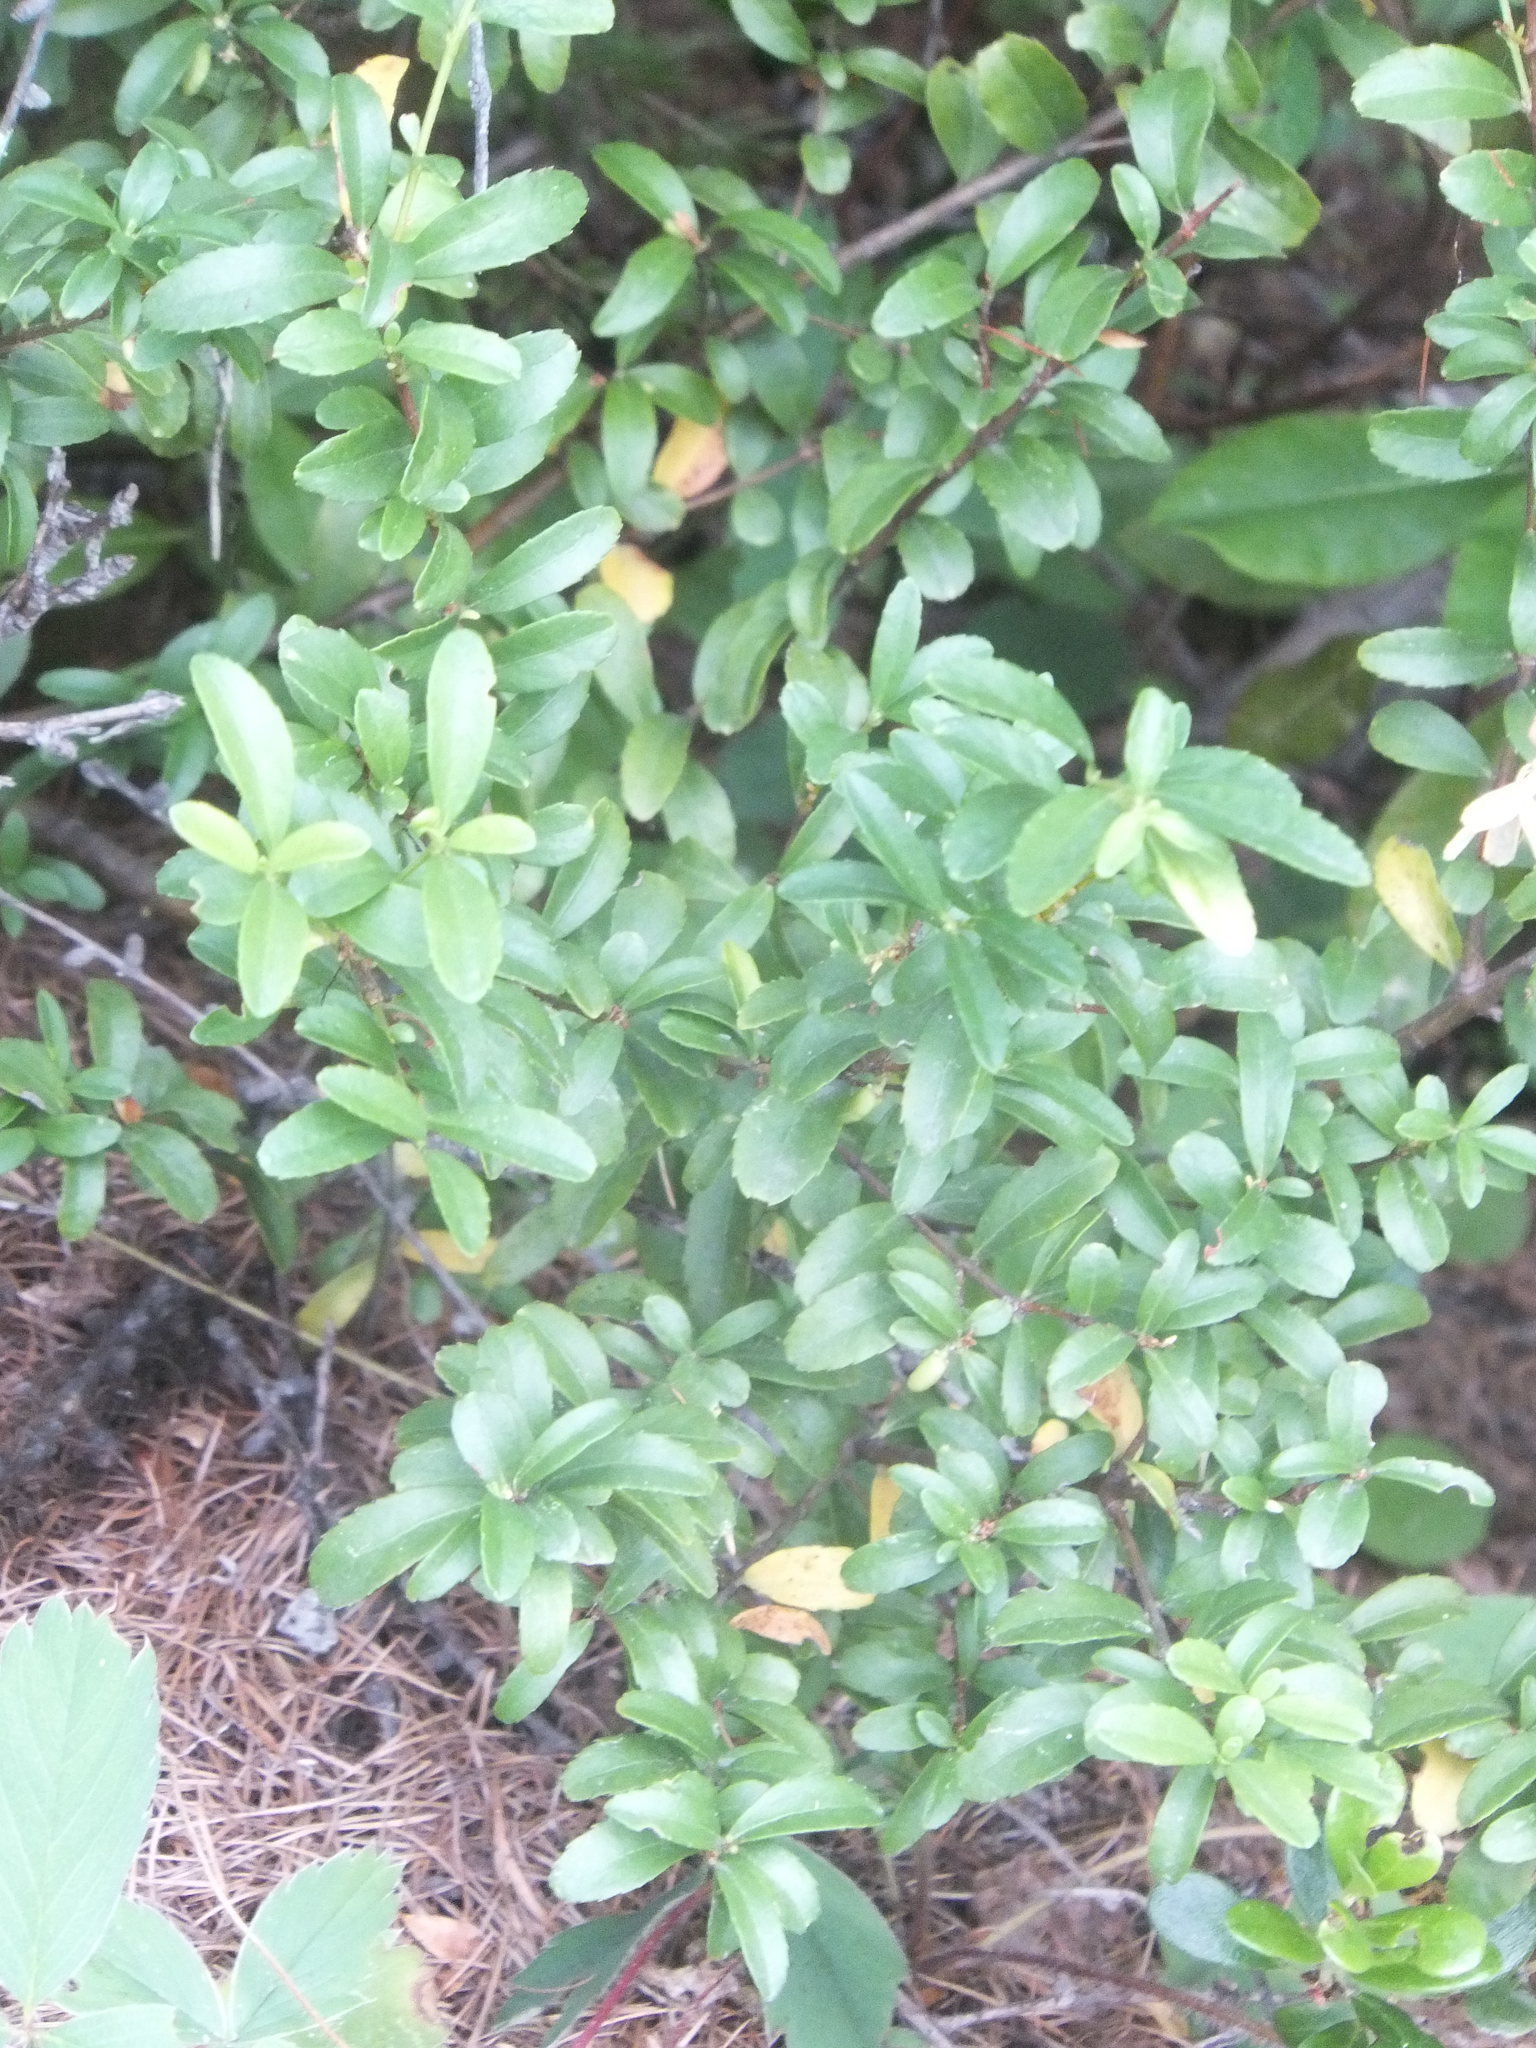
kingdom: Plantae
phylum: Tracheophyta
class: Magnoliopsida
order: Celastrales
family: Celastraceae
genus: Paxistima
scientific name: Paxistima myrsinites
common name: Mountain-lover
